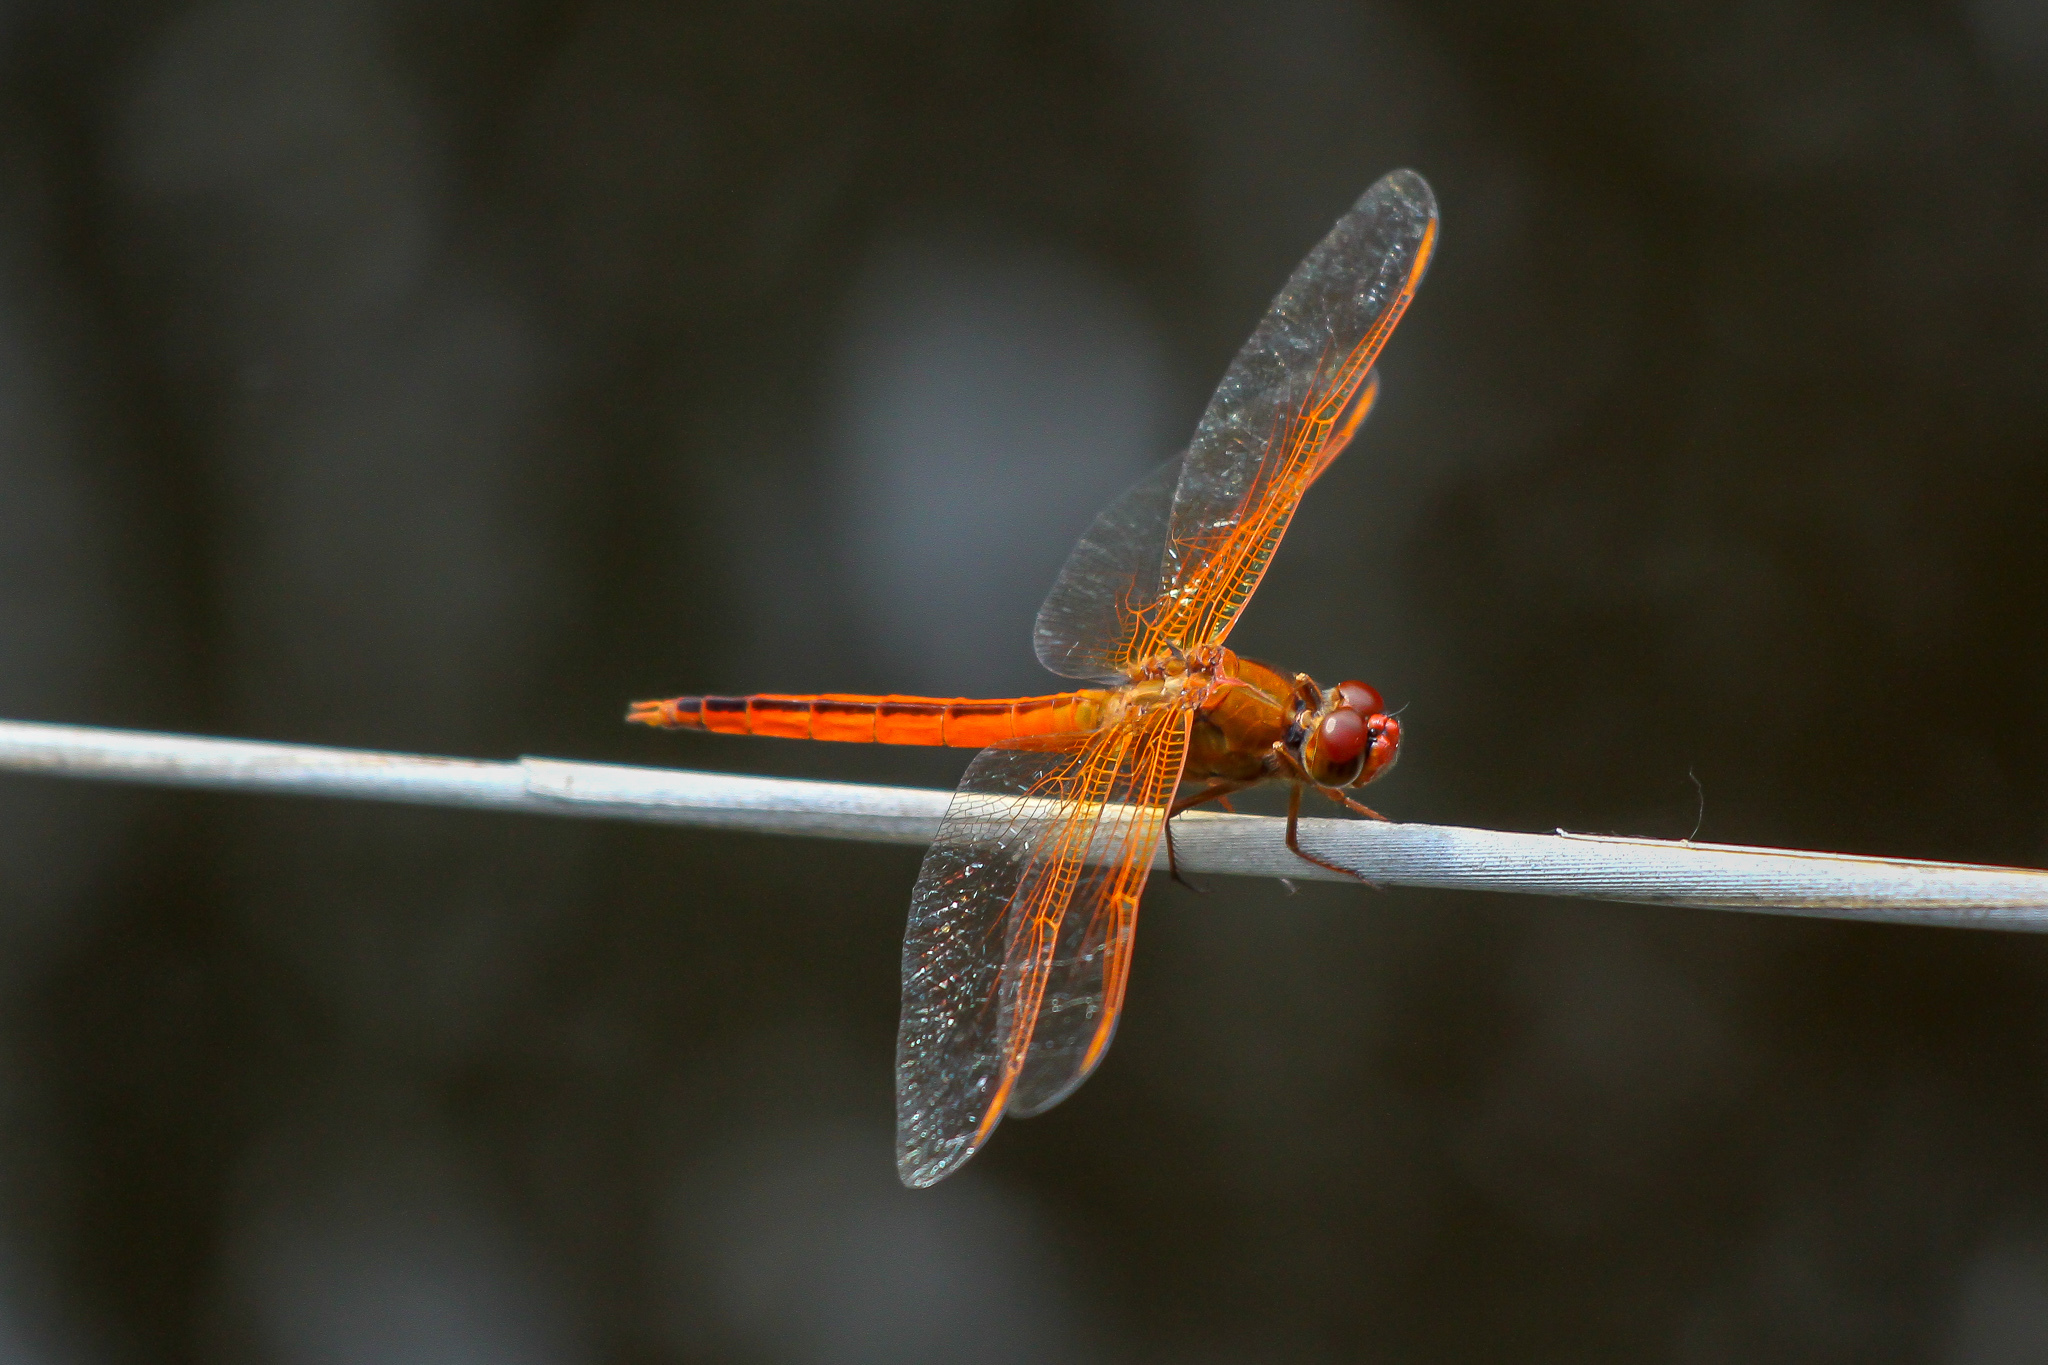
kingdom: Animalia
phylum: Arthropoda
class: Insecta
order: Odonata
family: Libellulidae
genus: Libellula
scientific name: Libellula needhami
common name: Needham's skimmer
